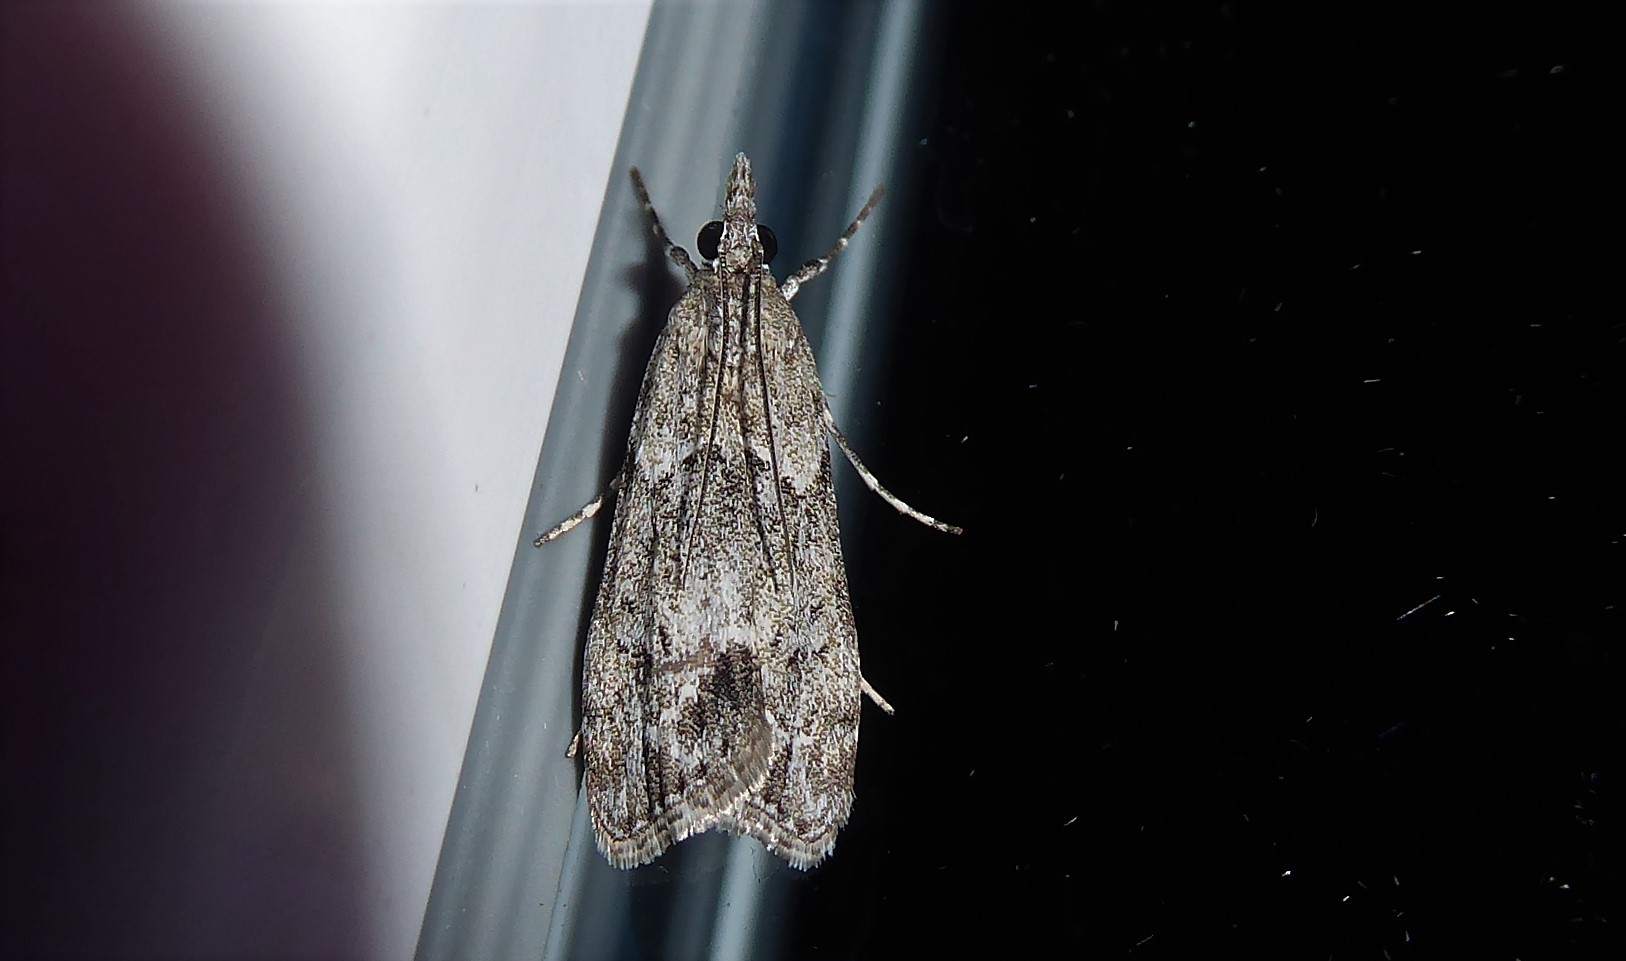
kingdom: Animalia
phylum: Arthropoda
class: Insecta
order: Lepidoptera
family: Crambidae
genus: Eudonia
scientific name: Eudonia rakaiensis
